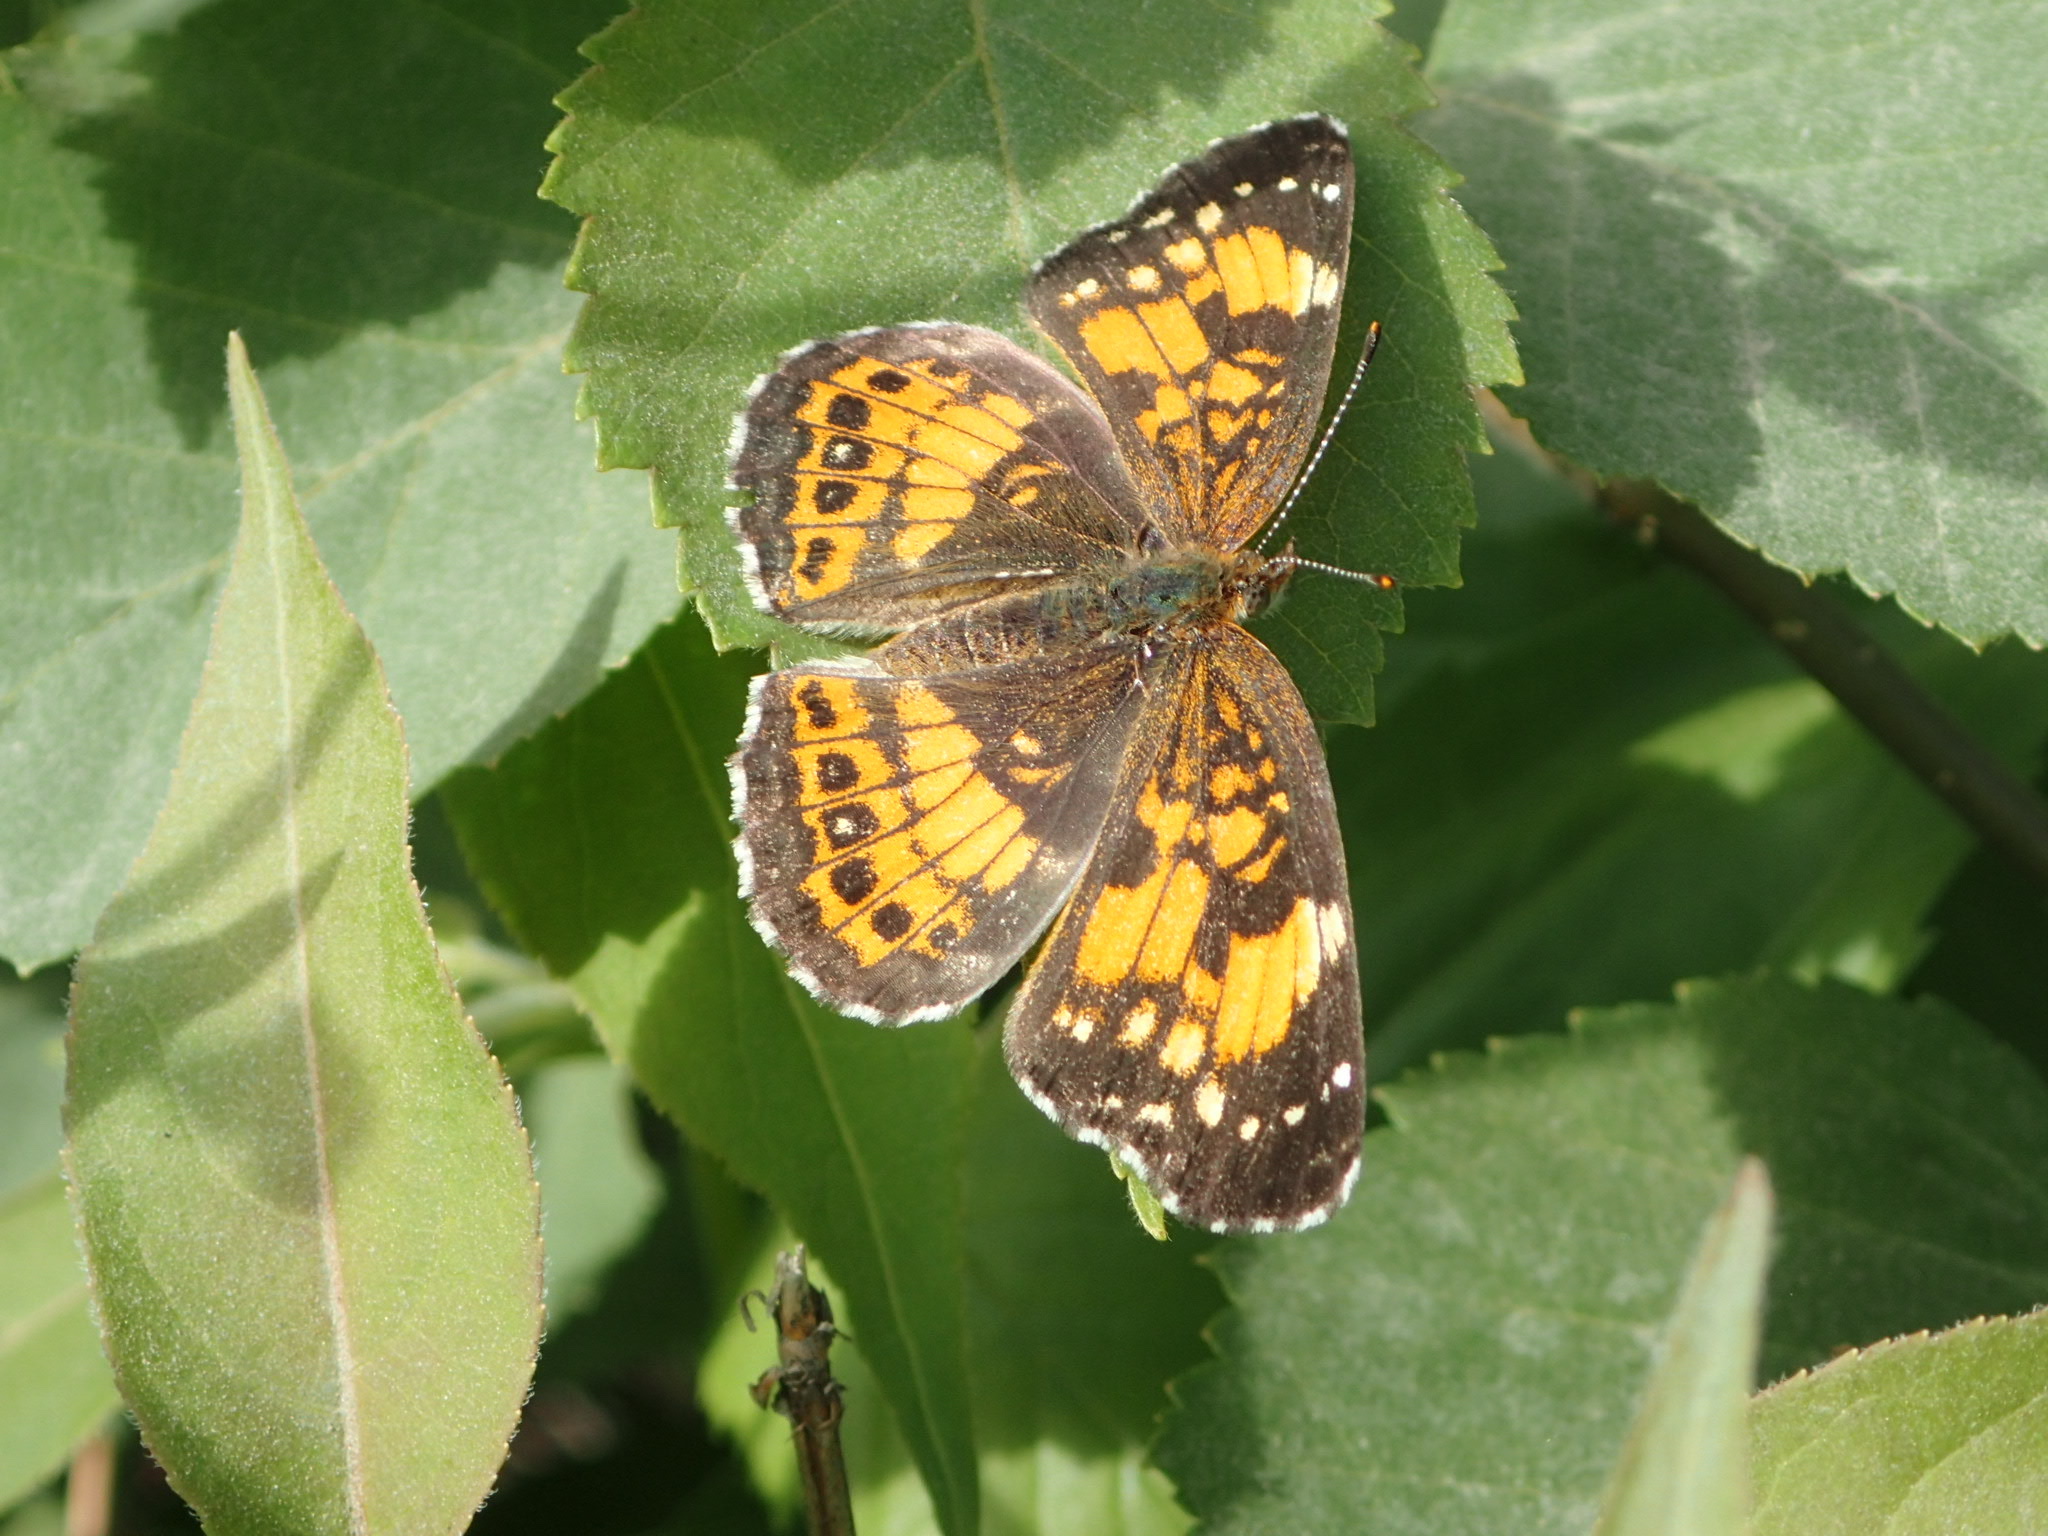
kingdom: Animalia
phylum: Arthropoda
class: Insecta
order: Lepidoptera
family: Nymphalidae
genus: Chlosyne
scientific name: Chlosyne nycteis
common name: Silvery checkerspot
